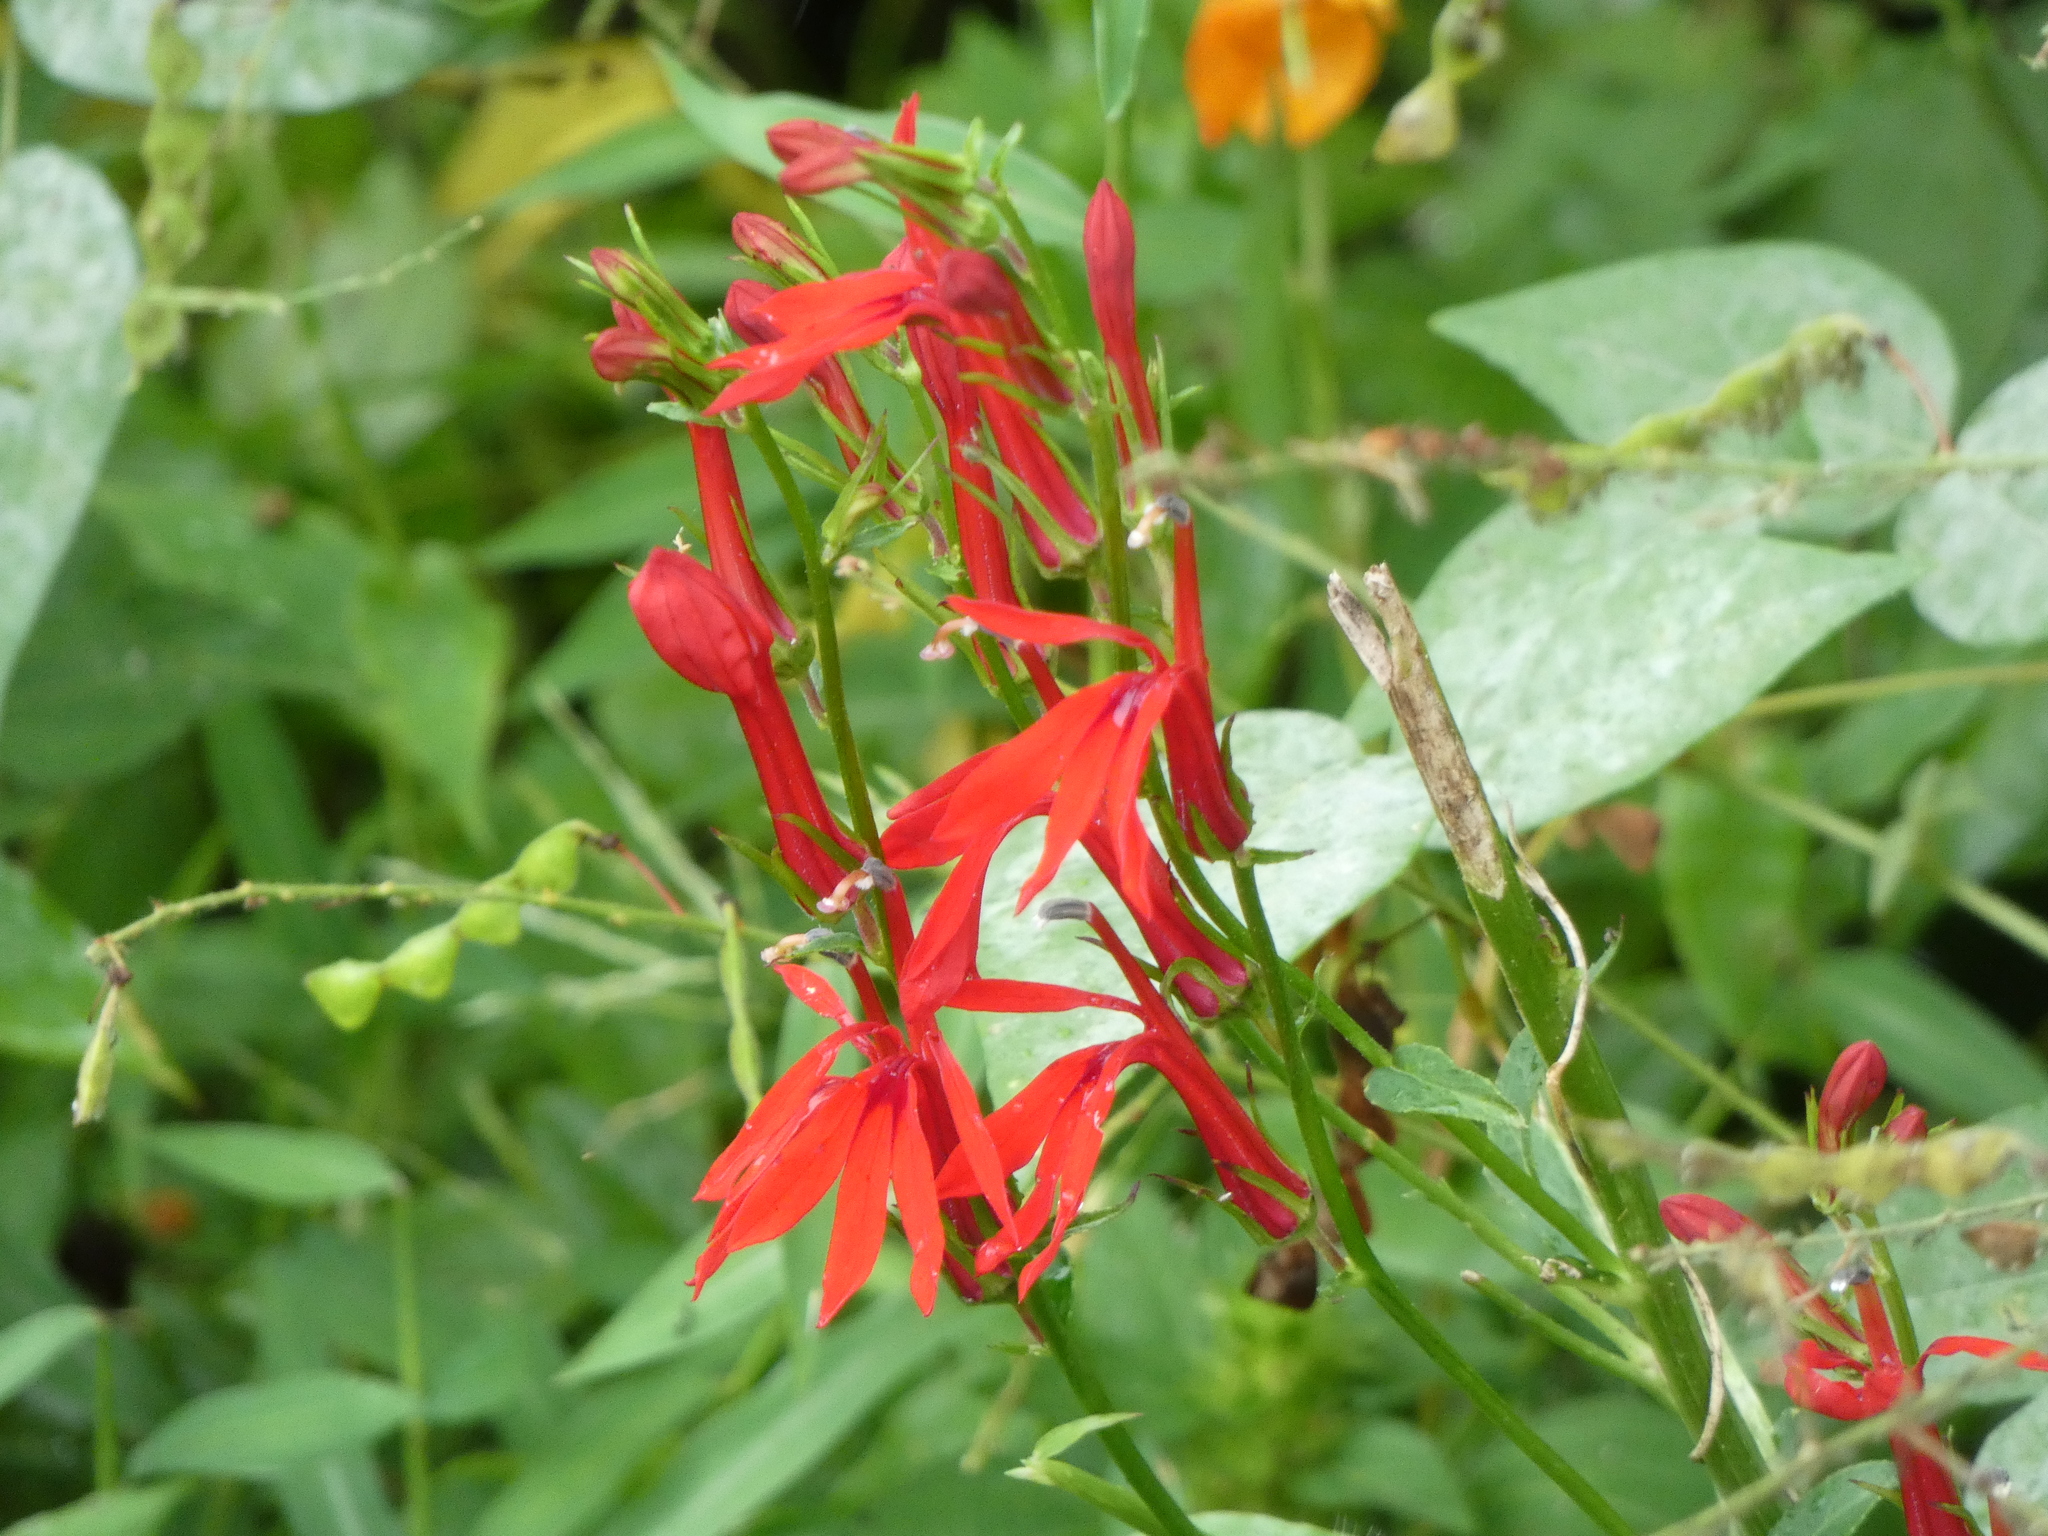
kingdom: Plantae
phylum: Tracheophyta
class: Magnoliopsida
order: Asterales
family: Campanulaceae
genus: Lobelia
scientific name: Lobelia cardinalis
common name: Cardinal flower
